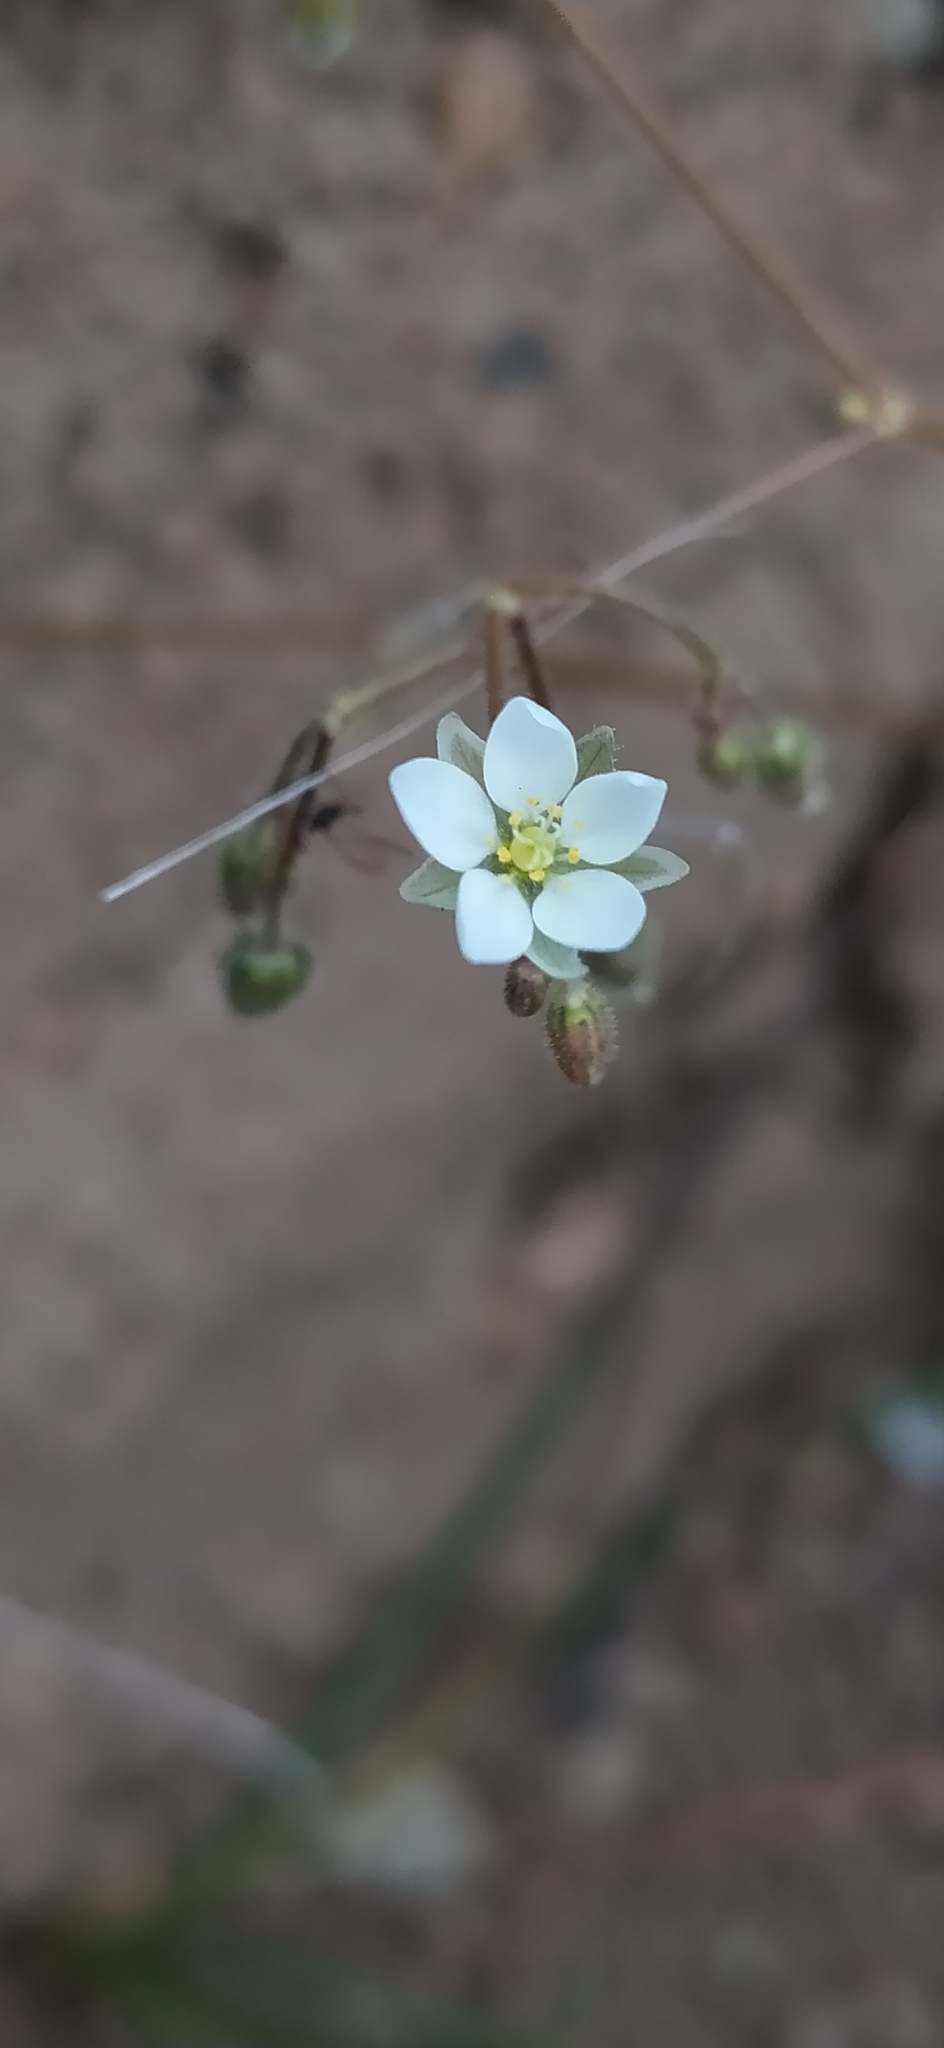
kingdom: Plantae
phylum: Tracheophyta
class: Magnoliopsida
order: Caryophyllales
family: Caryophyllaceae
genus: Spergula
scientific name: Spergula arvensis
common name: Corn spurrey
